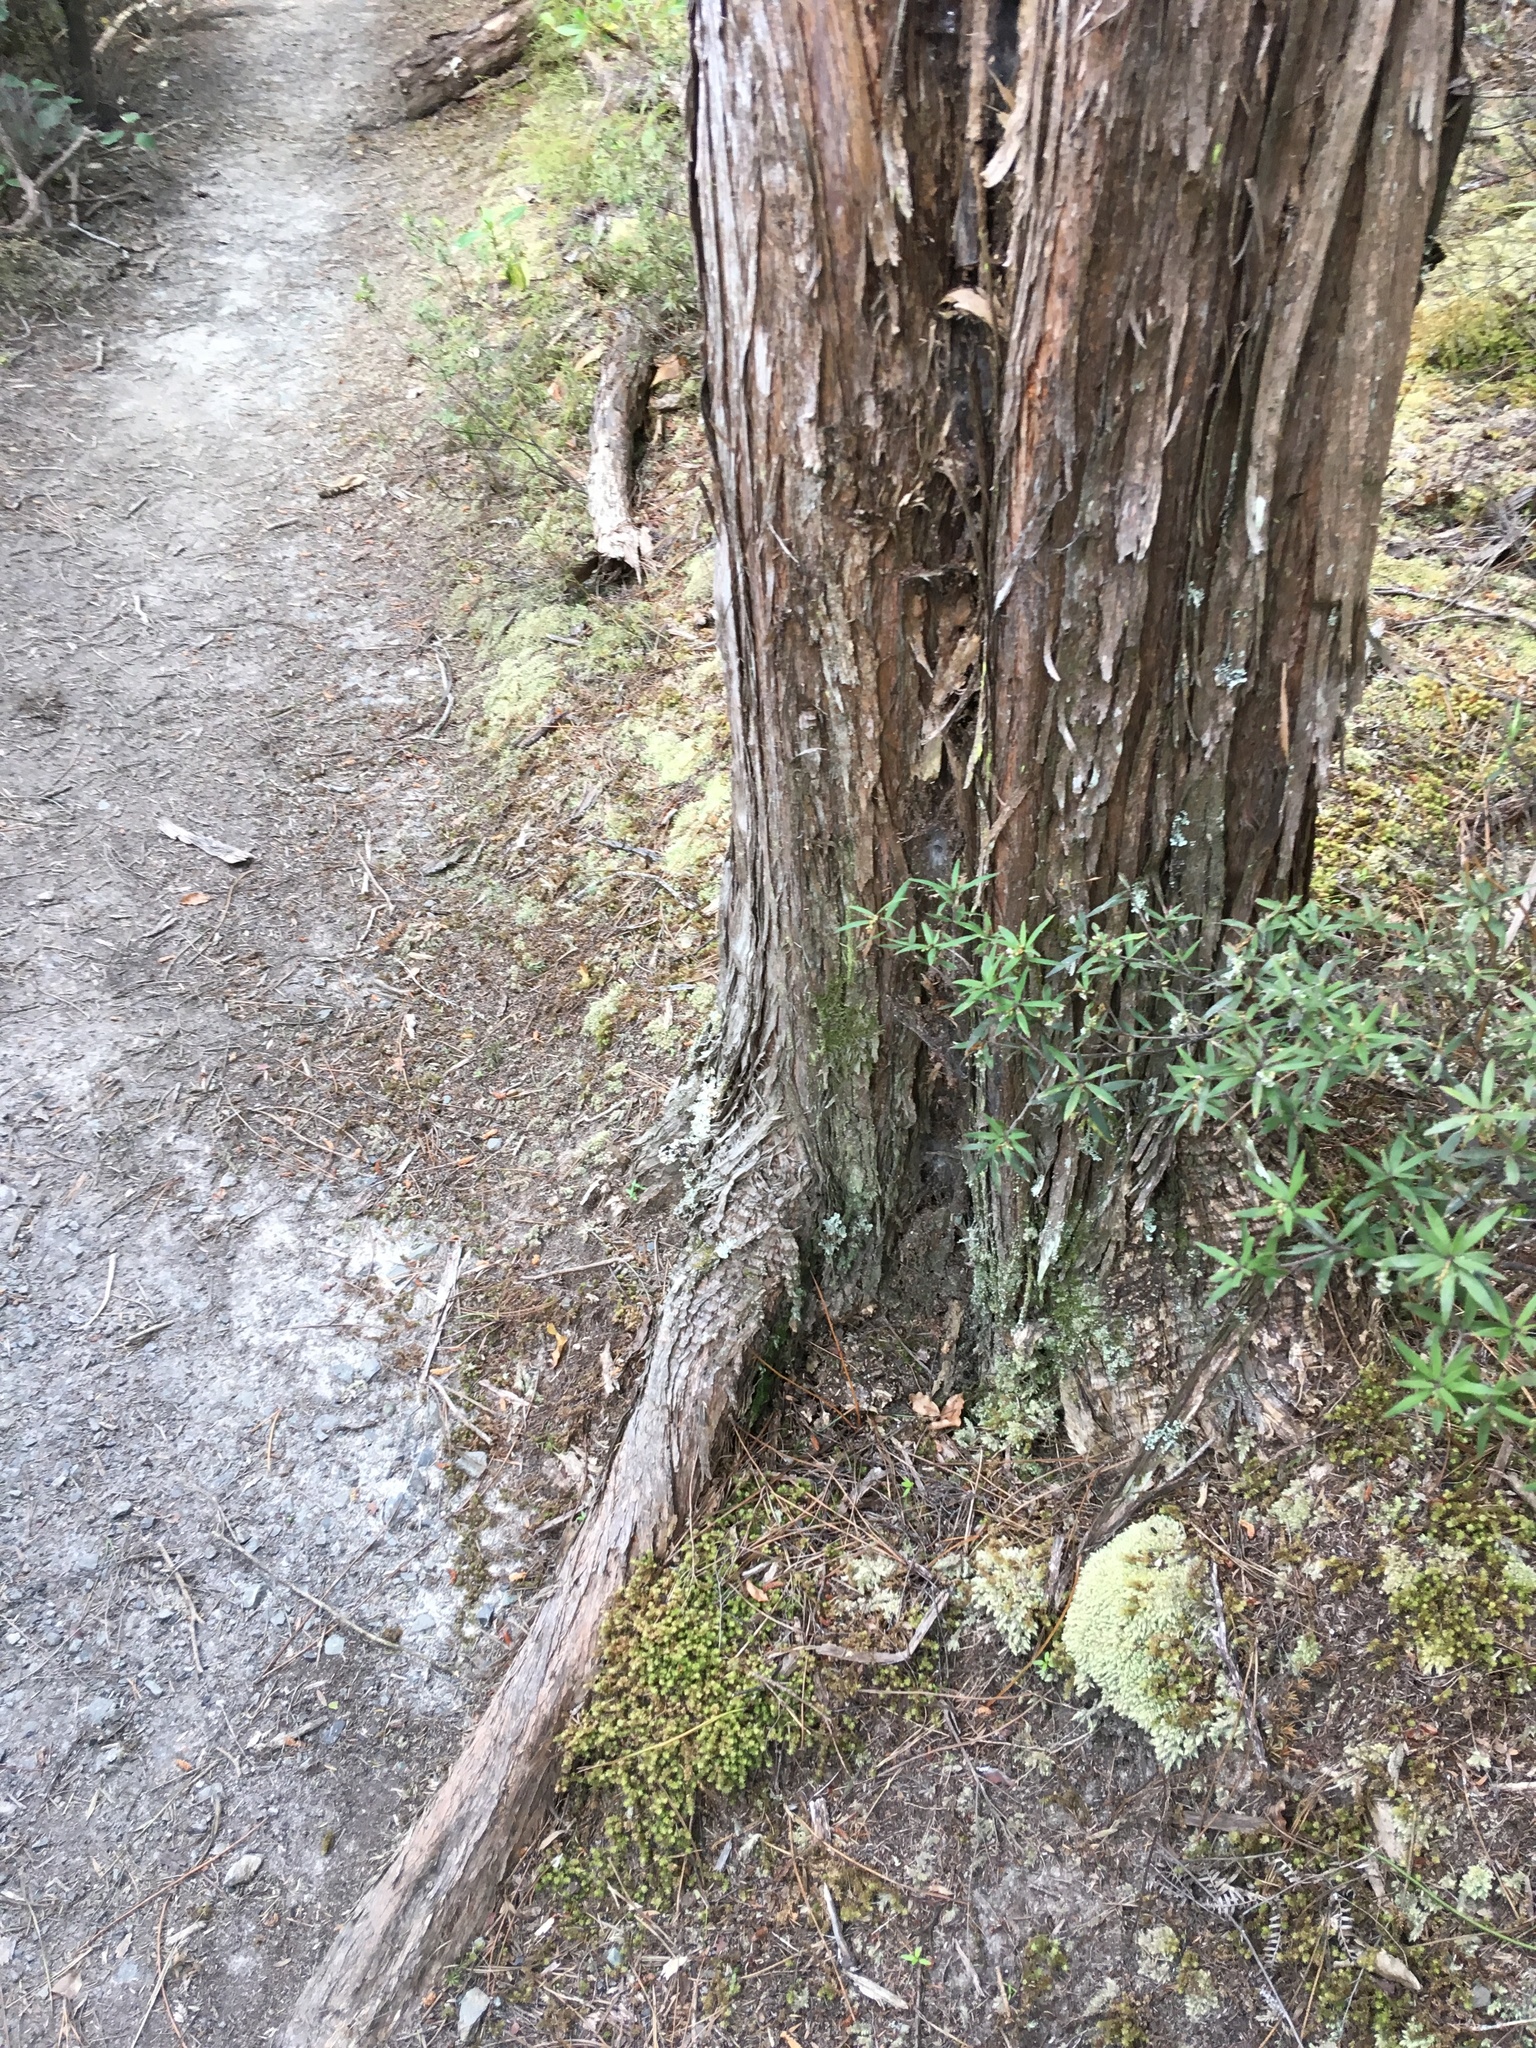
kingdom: Plantae
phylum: Tracheophyta
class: Magnoliopsida
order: Ericales
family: Ericaceae
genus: Leucopogon
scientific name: Leucopogon fasciculatus
